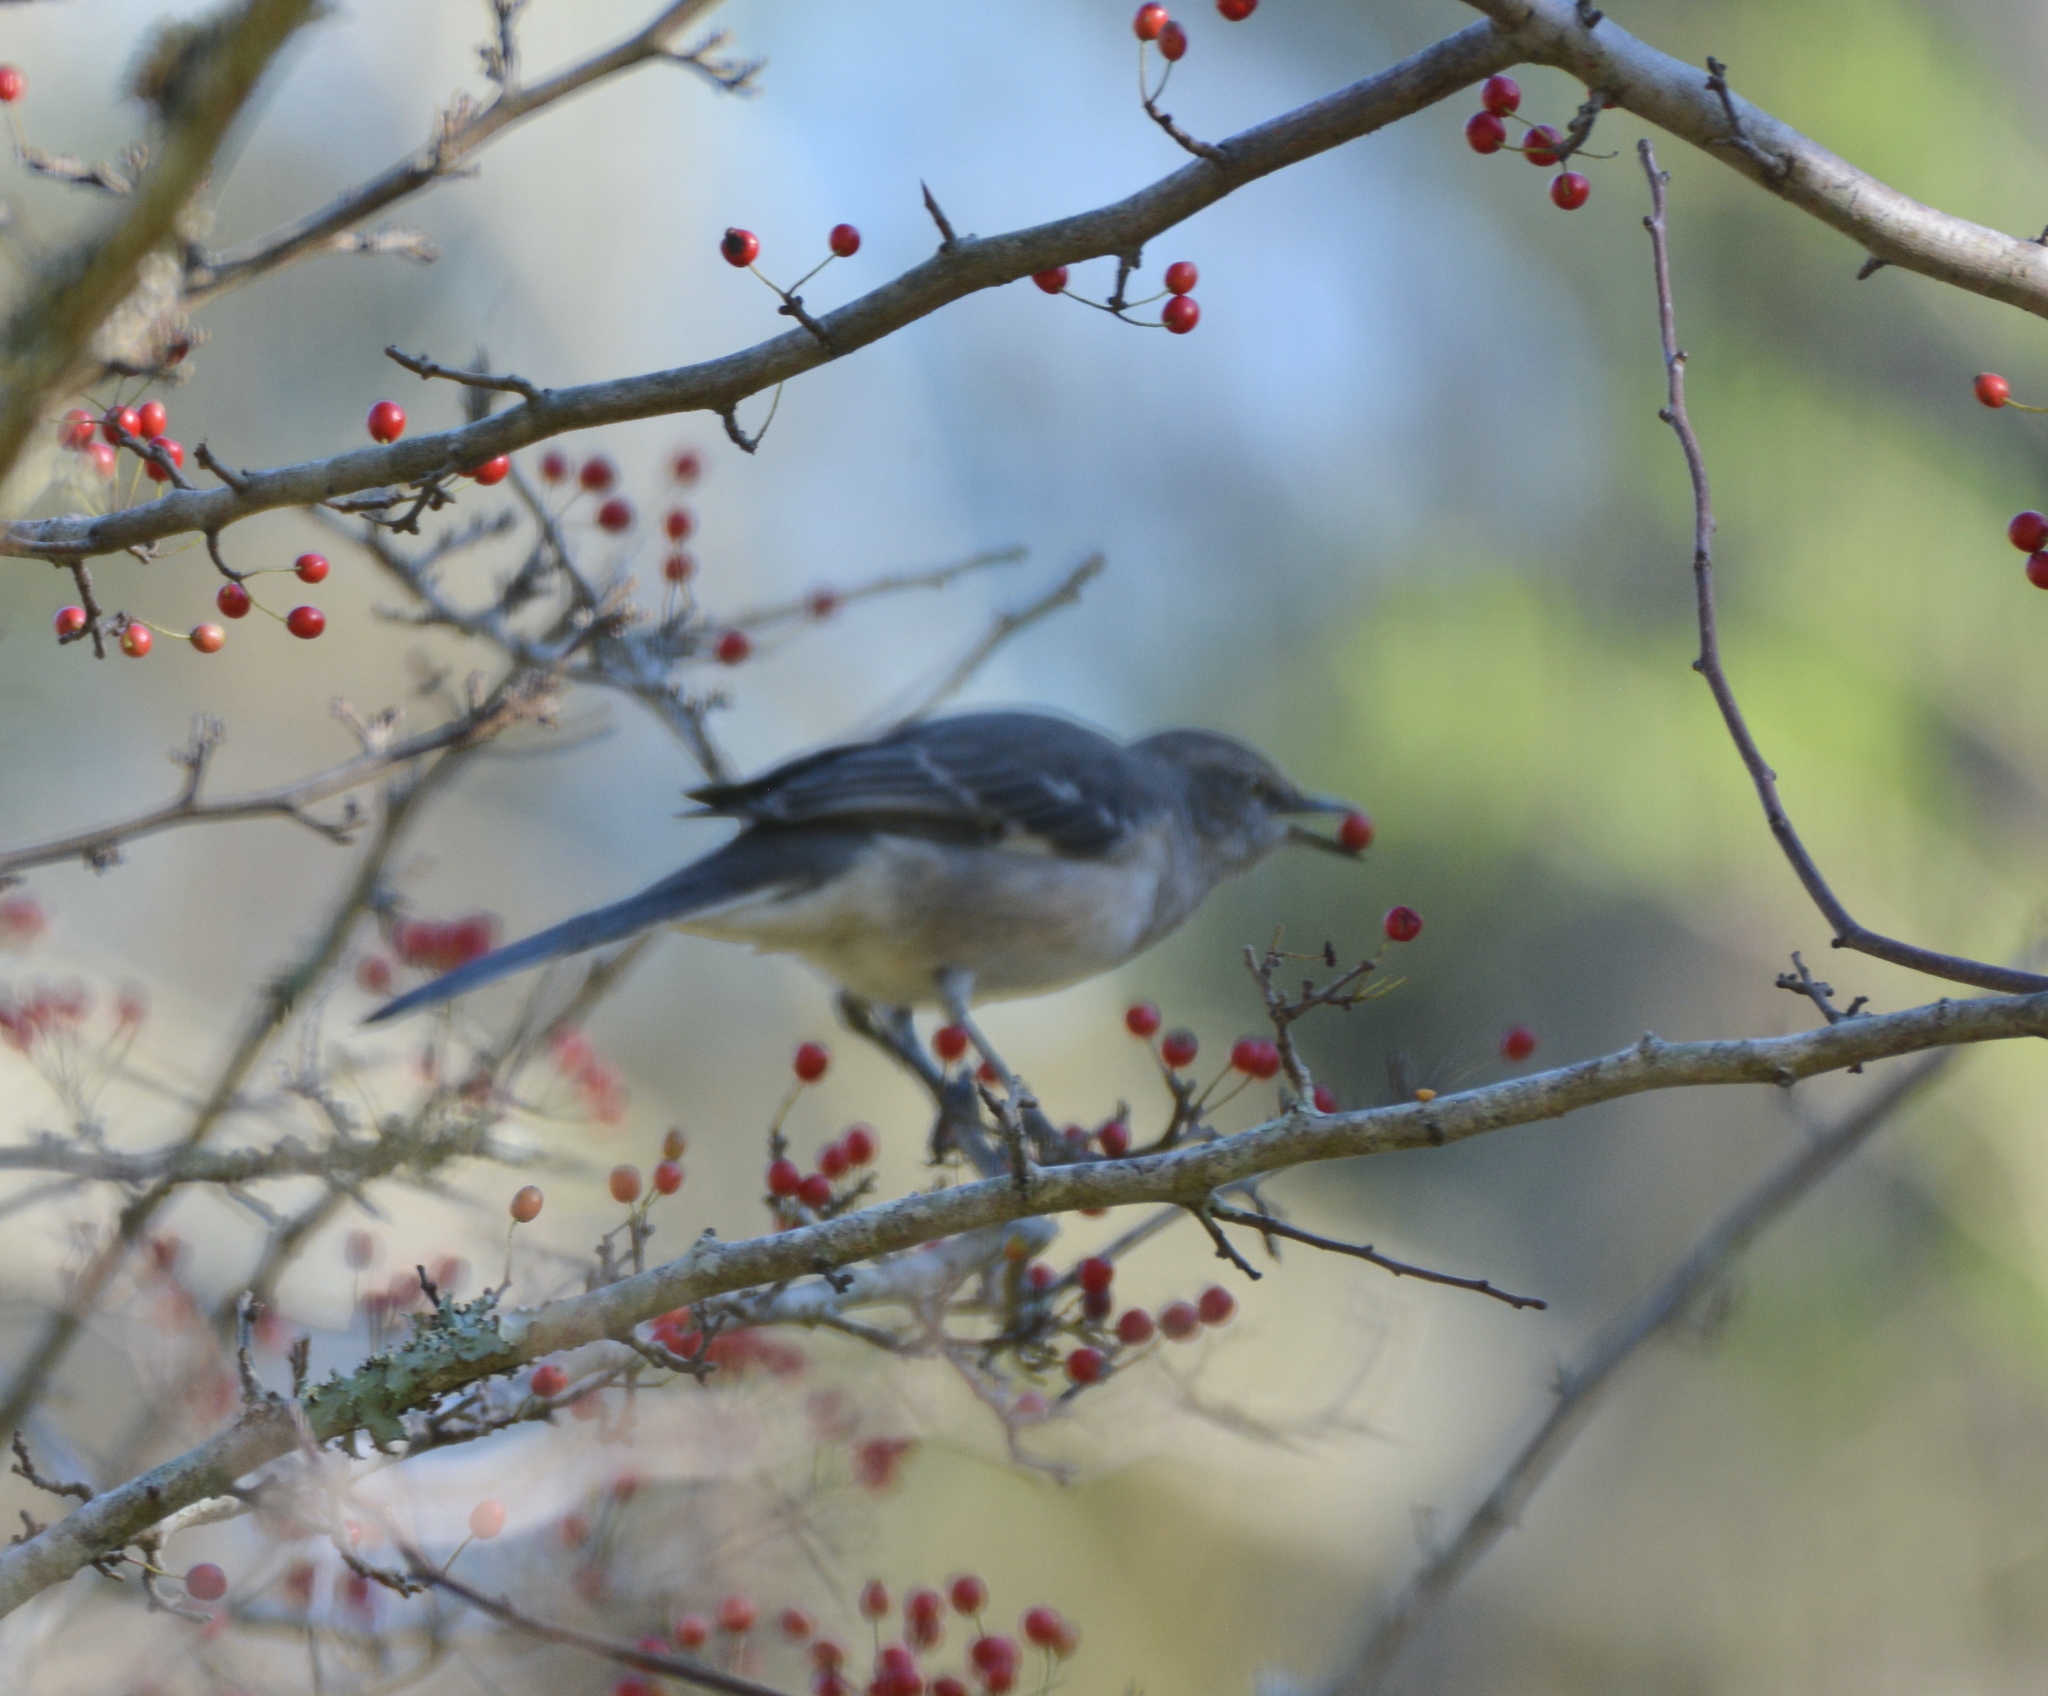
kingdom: Animalia
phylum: Chordata
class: Aves
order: Passeriformes
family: Mimidae
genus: Mimus
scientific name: Mimus polyglottos
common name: Northern mockingbird
